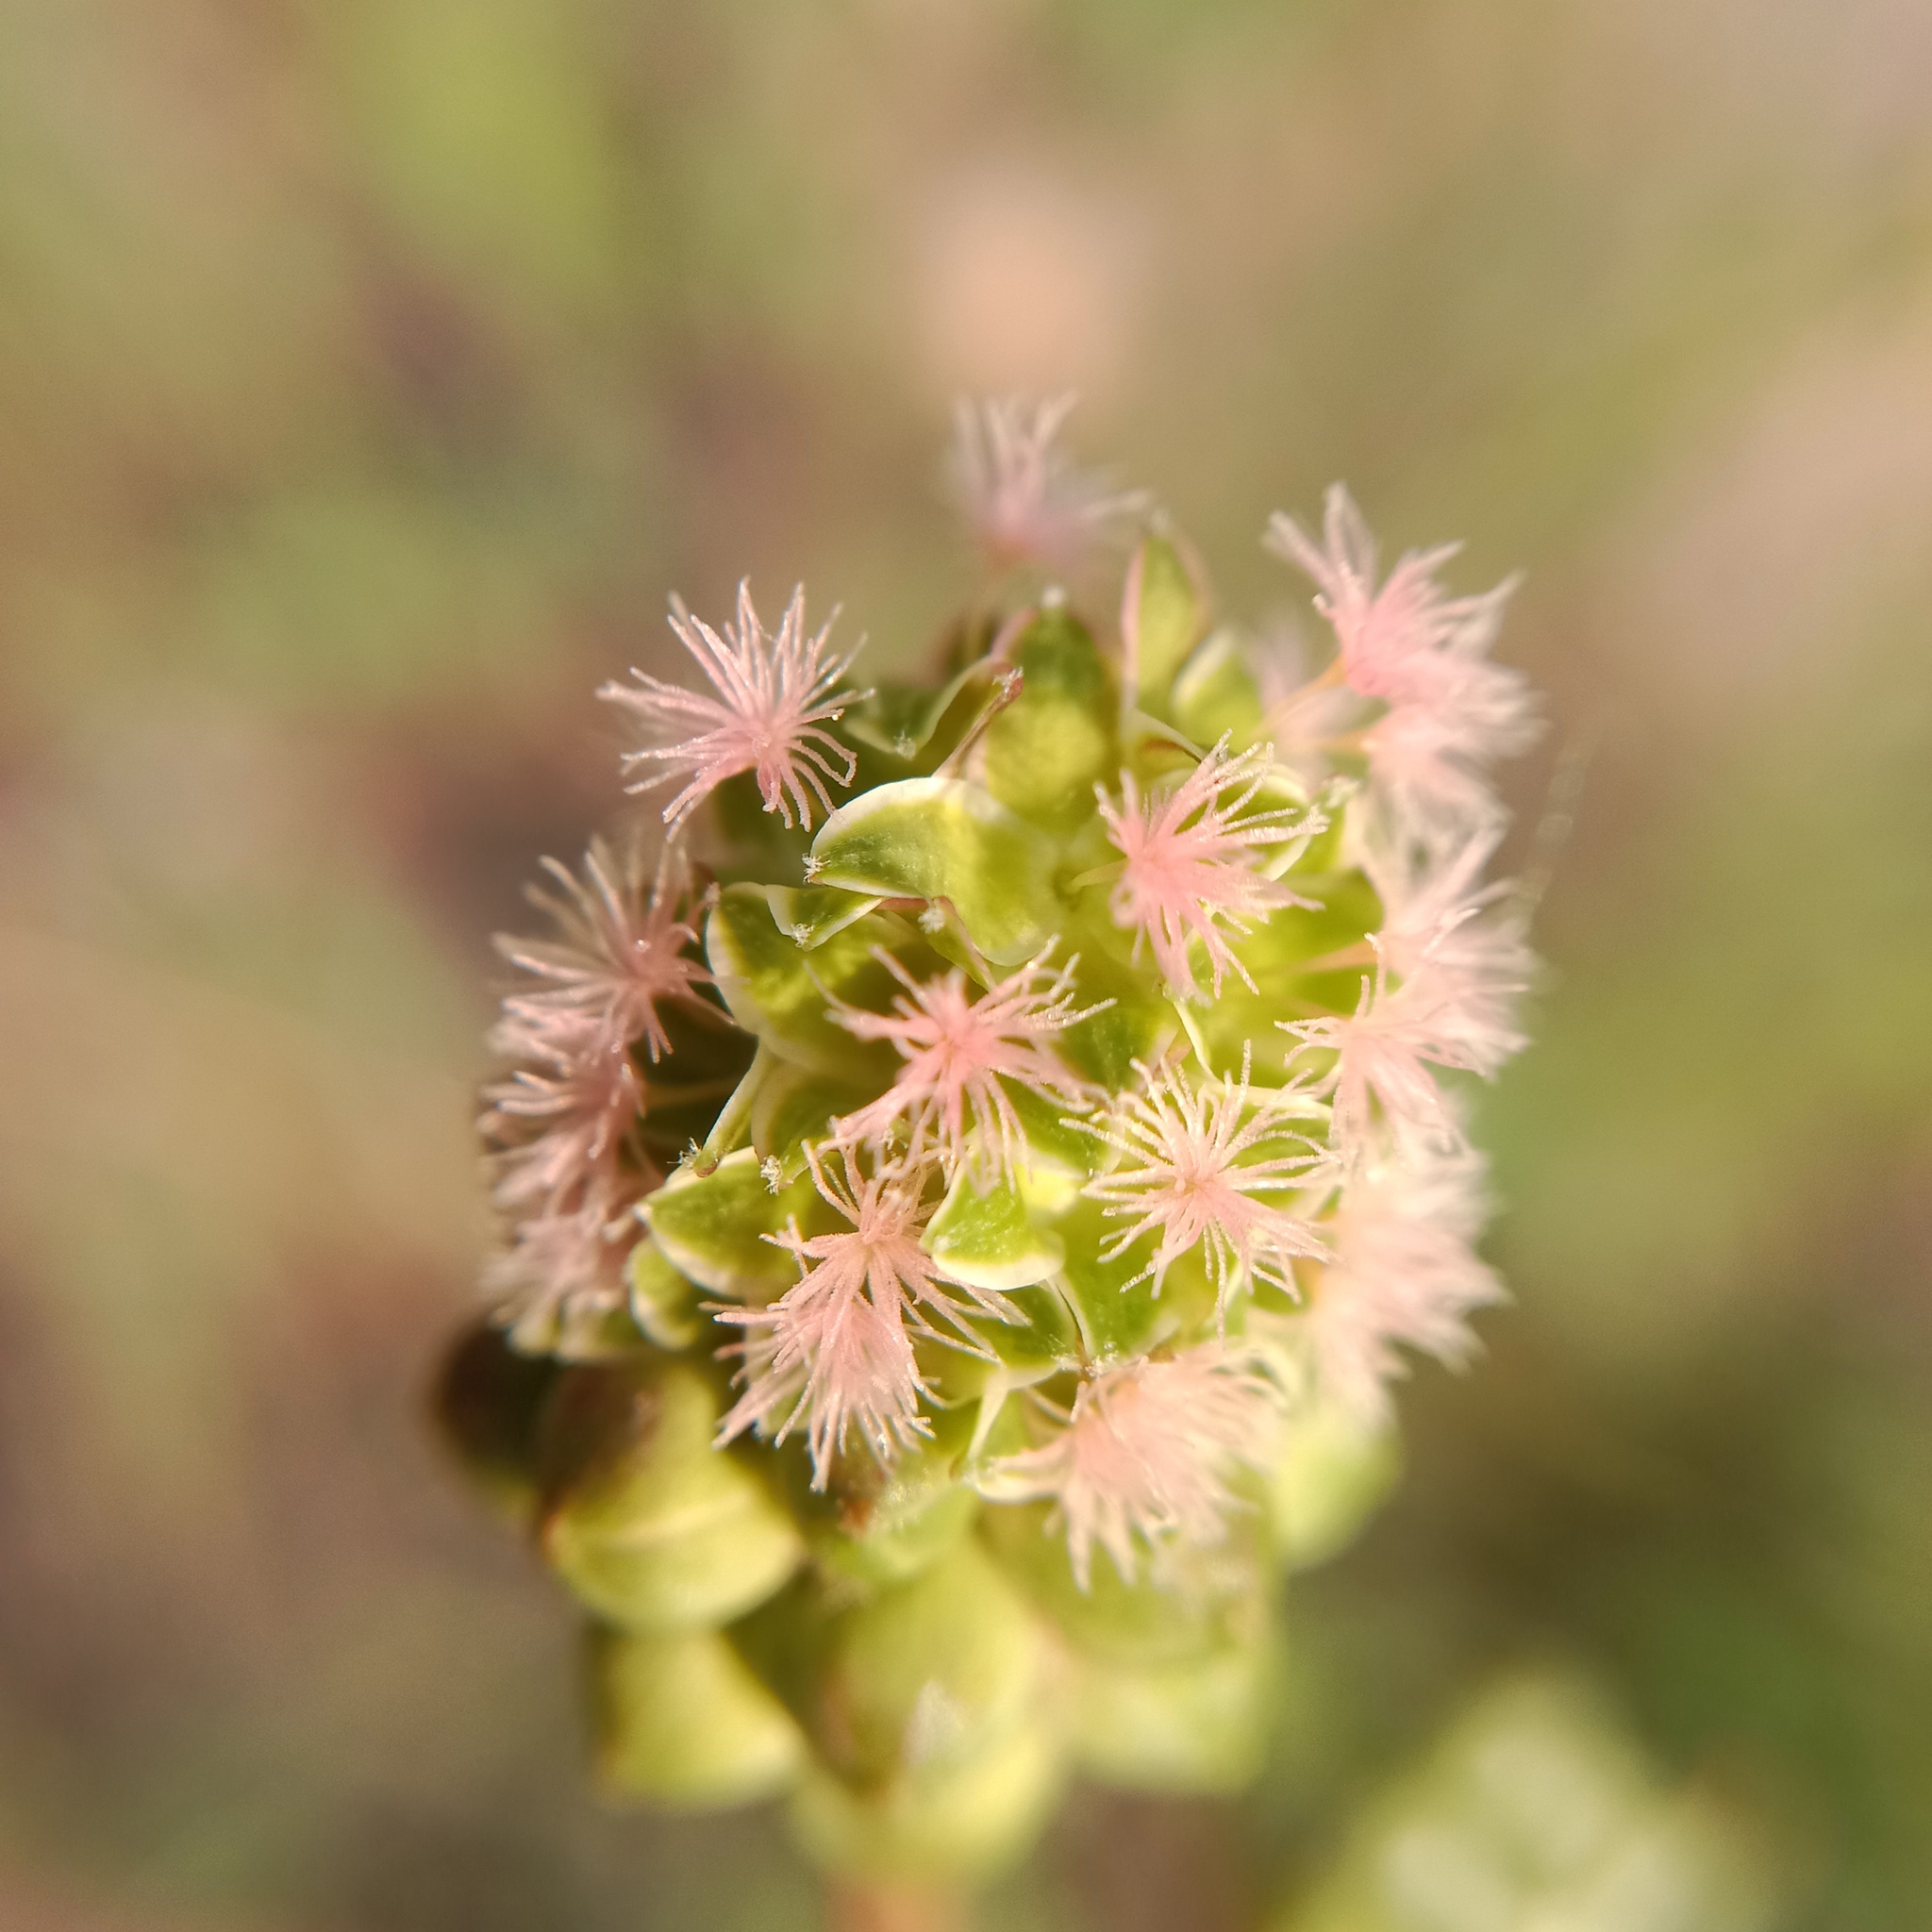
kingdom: Plantae
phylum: Tracheophyta
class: Magnoliopsida
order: Rosales
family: Rosaceae
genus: Poterium
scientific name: Poterium sanguisorba
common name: Salad burnet
